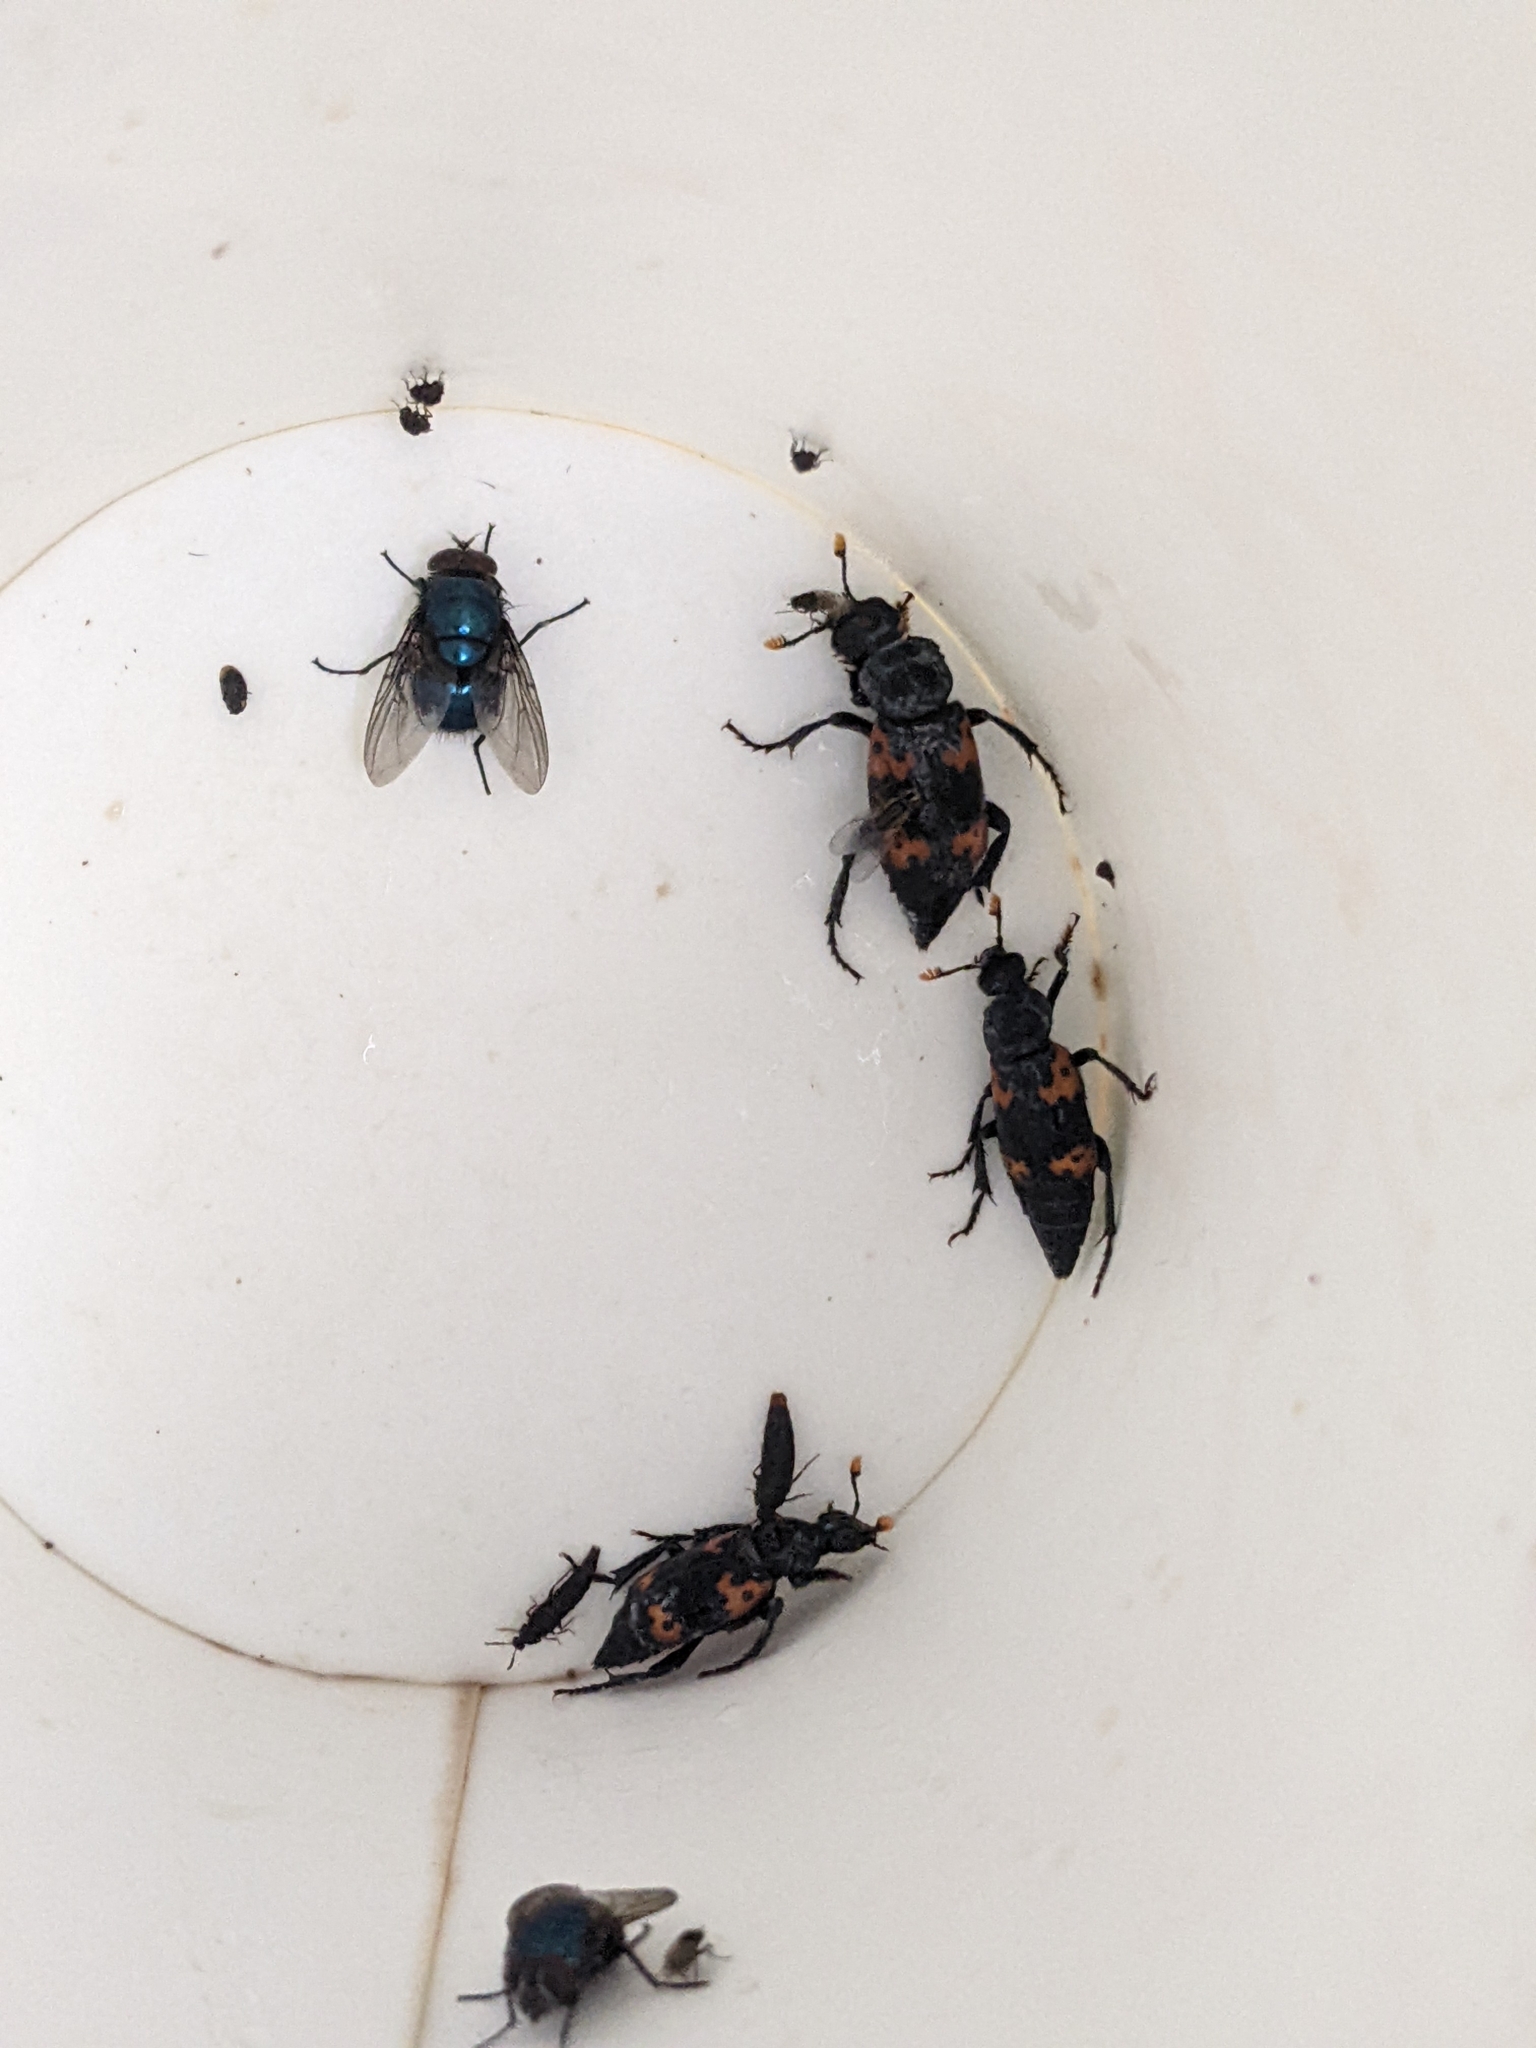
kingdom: Animalia
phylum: Arthropoda
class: Insecta
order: Coleoptera
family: Staphylinidae
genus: Nicrophorus
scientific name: Nicrophorus nepalensis
